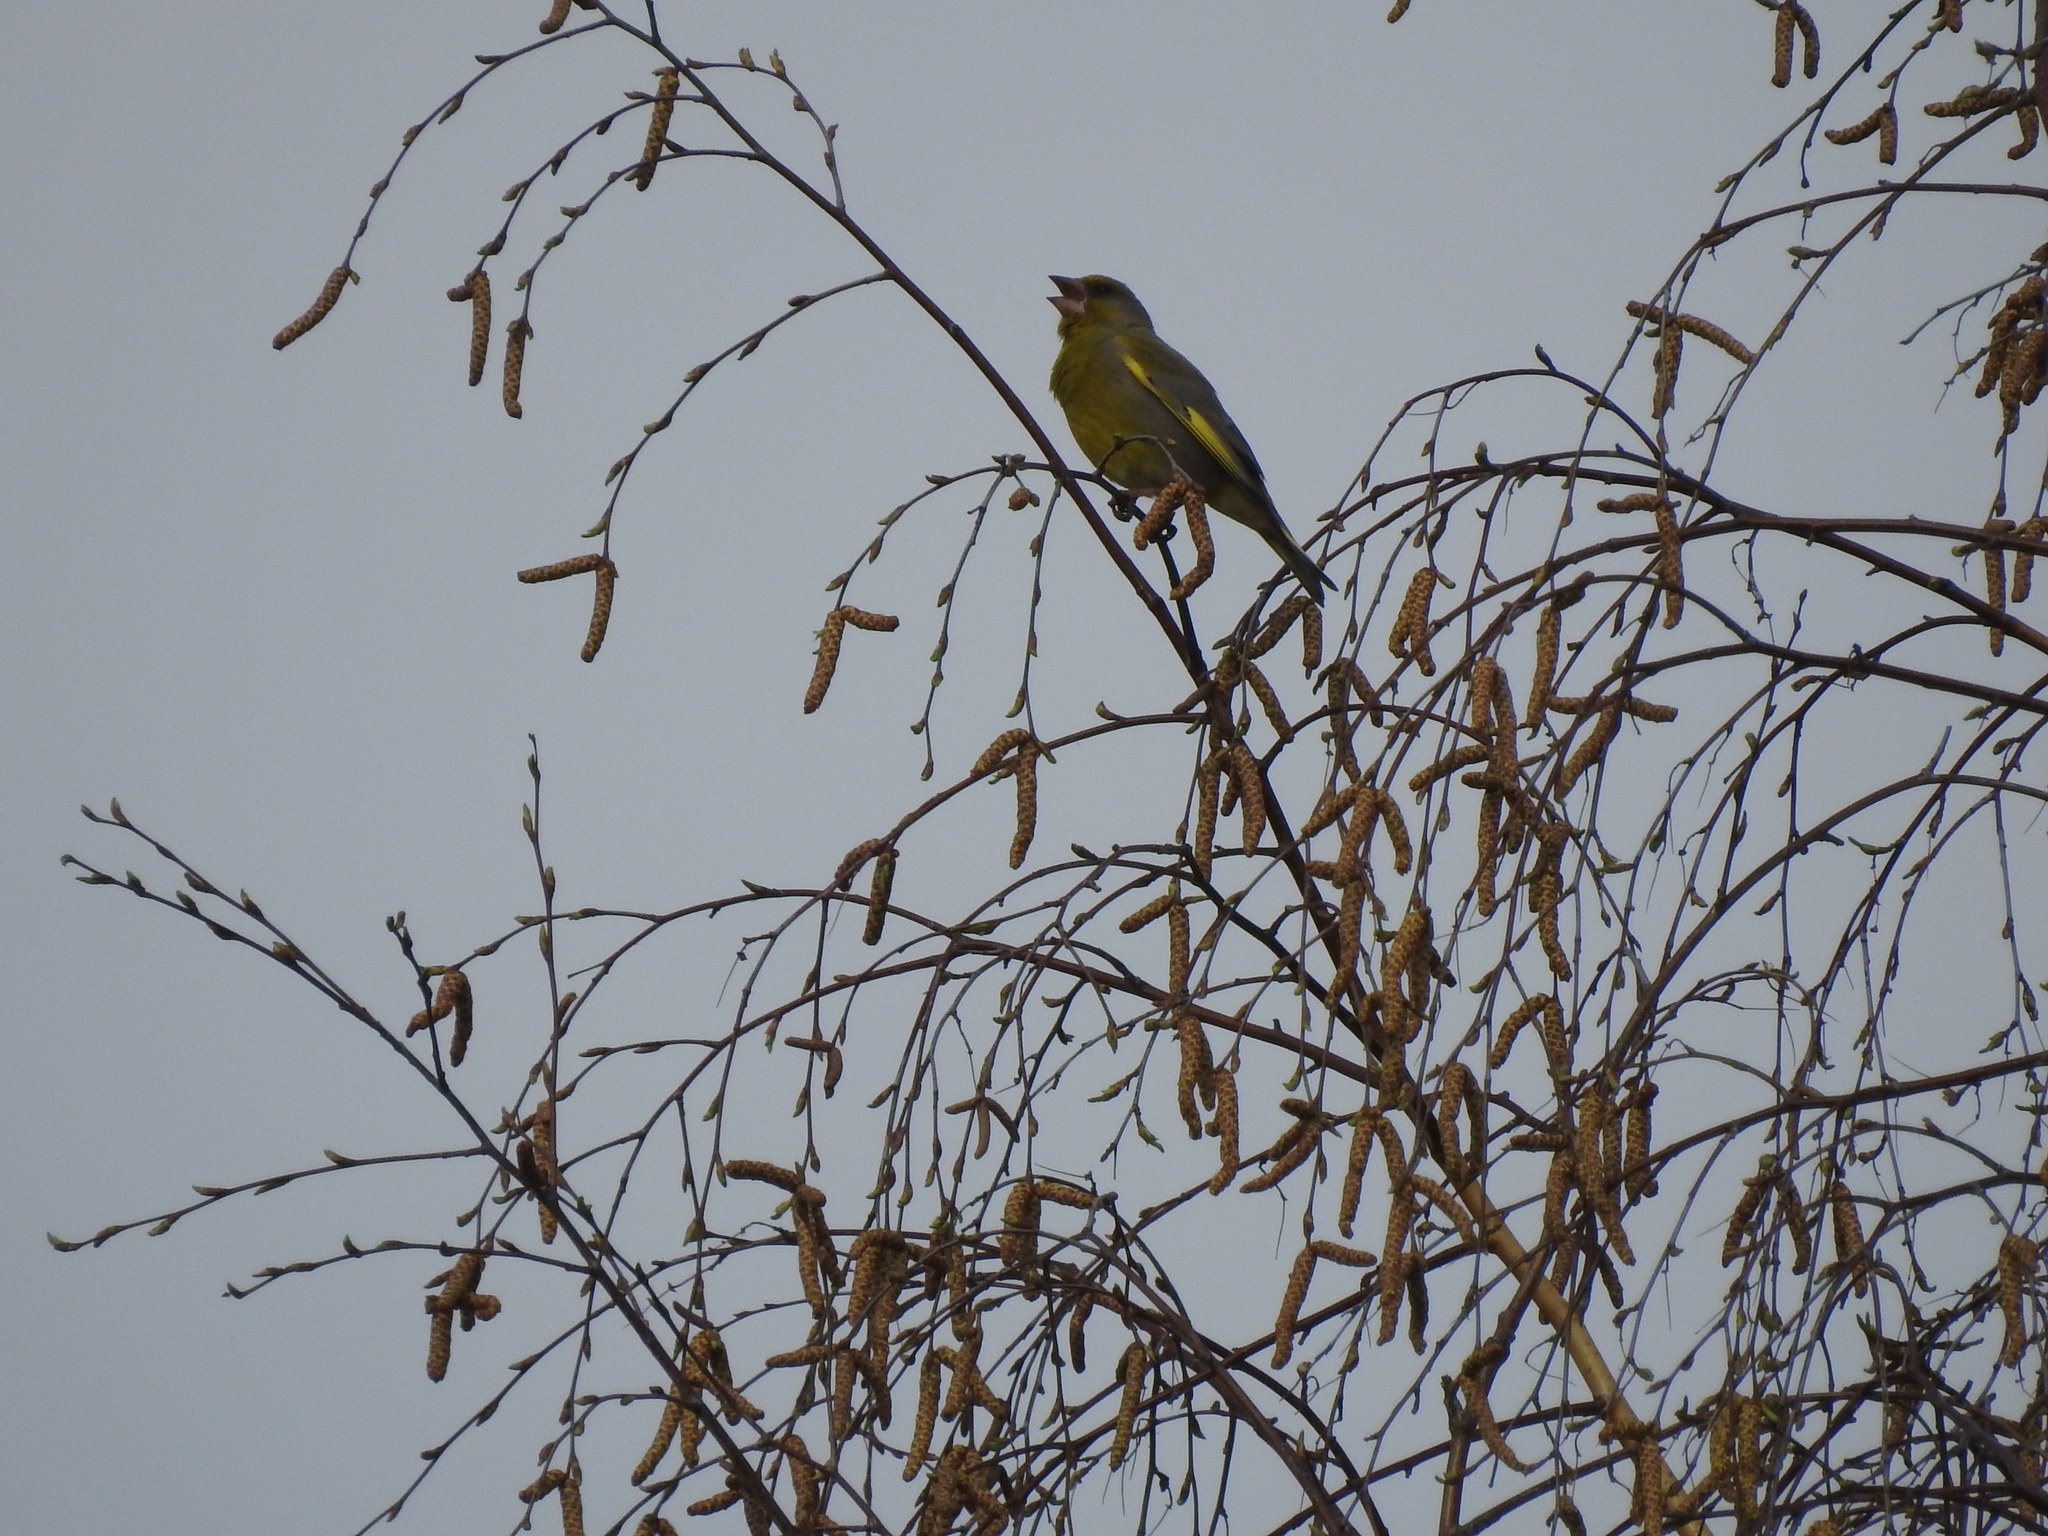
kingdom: Plantae
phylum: Tracheophyta
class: Liliopsida
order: Poales
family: Poaceae
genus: Chloris
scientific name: Chloris chloris
